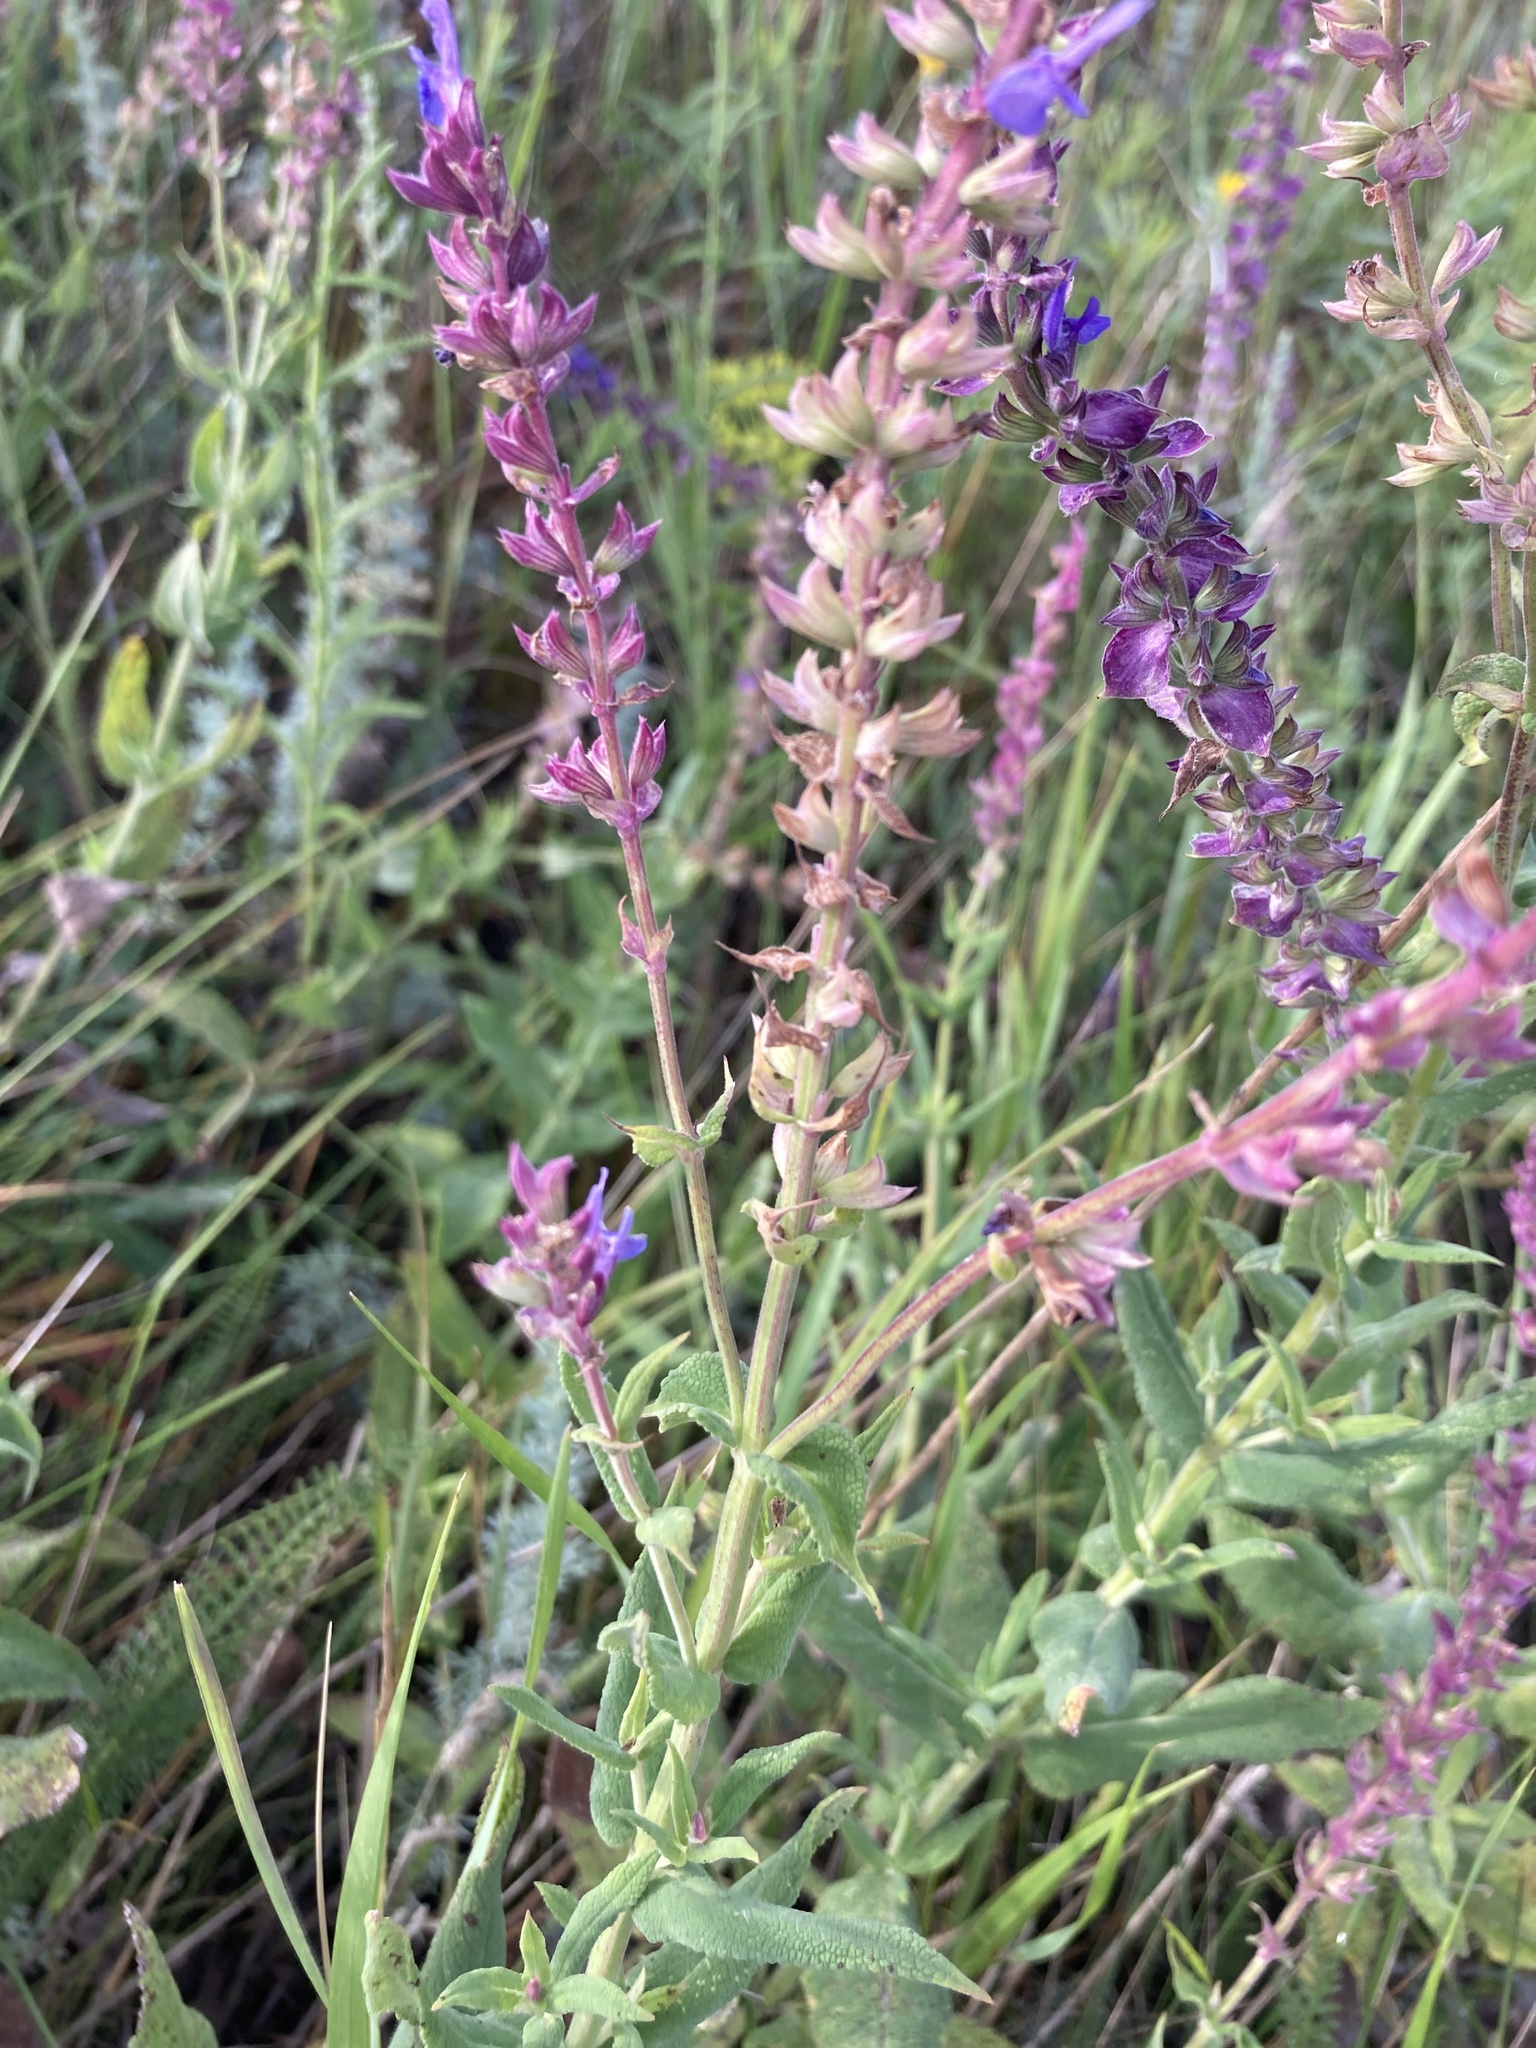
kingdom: Plantae
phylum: Tracheophyta
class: Magnoliopsida
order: Lamiales
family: Lamiaceae
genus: Salvia
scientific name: Salvia nemorosa
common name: Balkan clary
